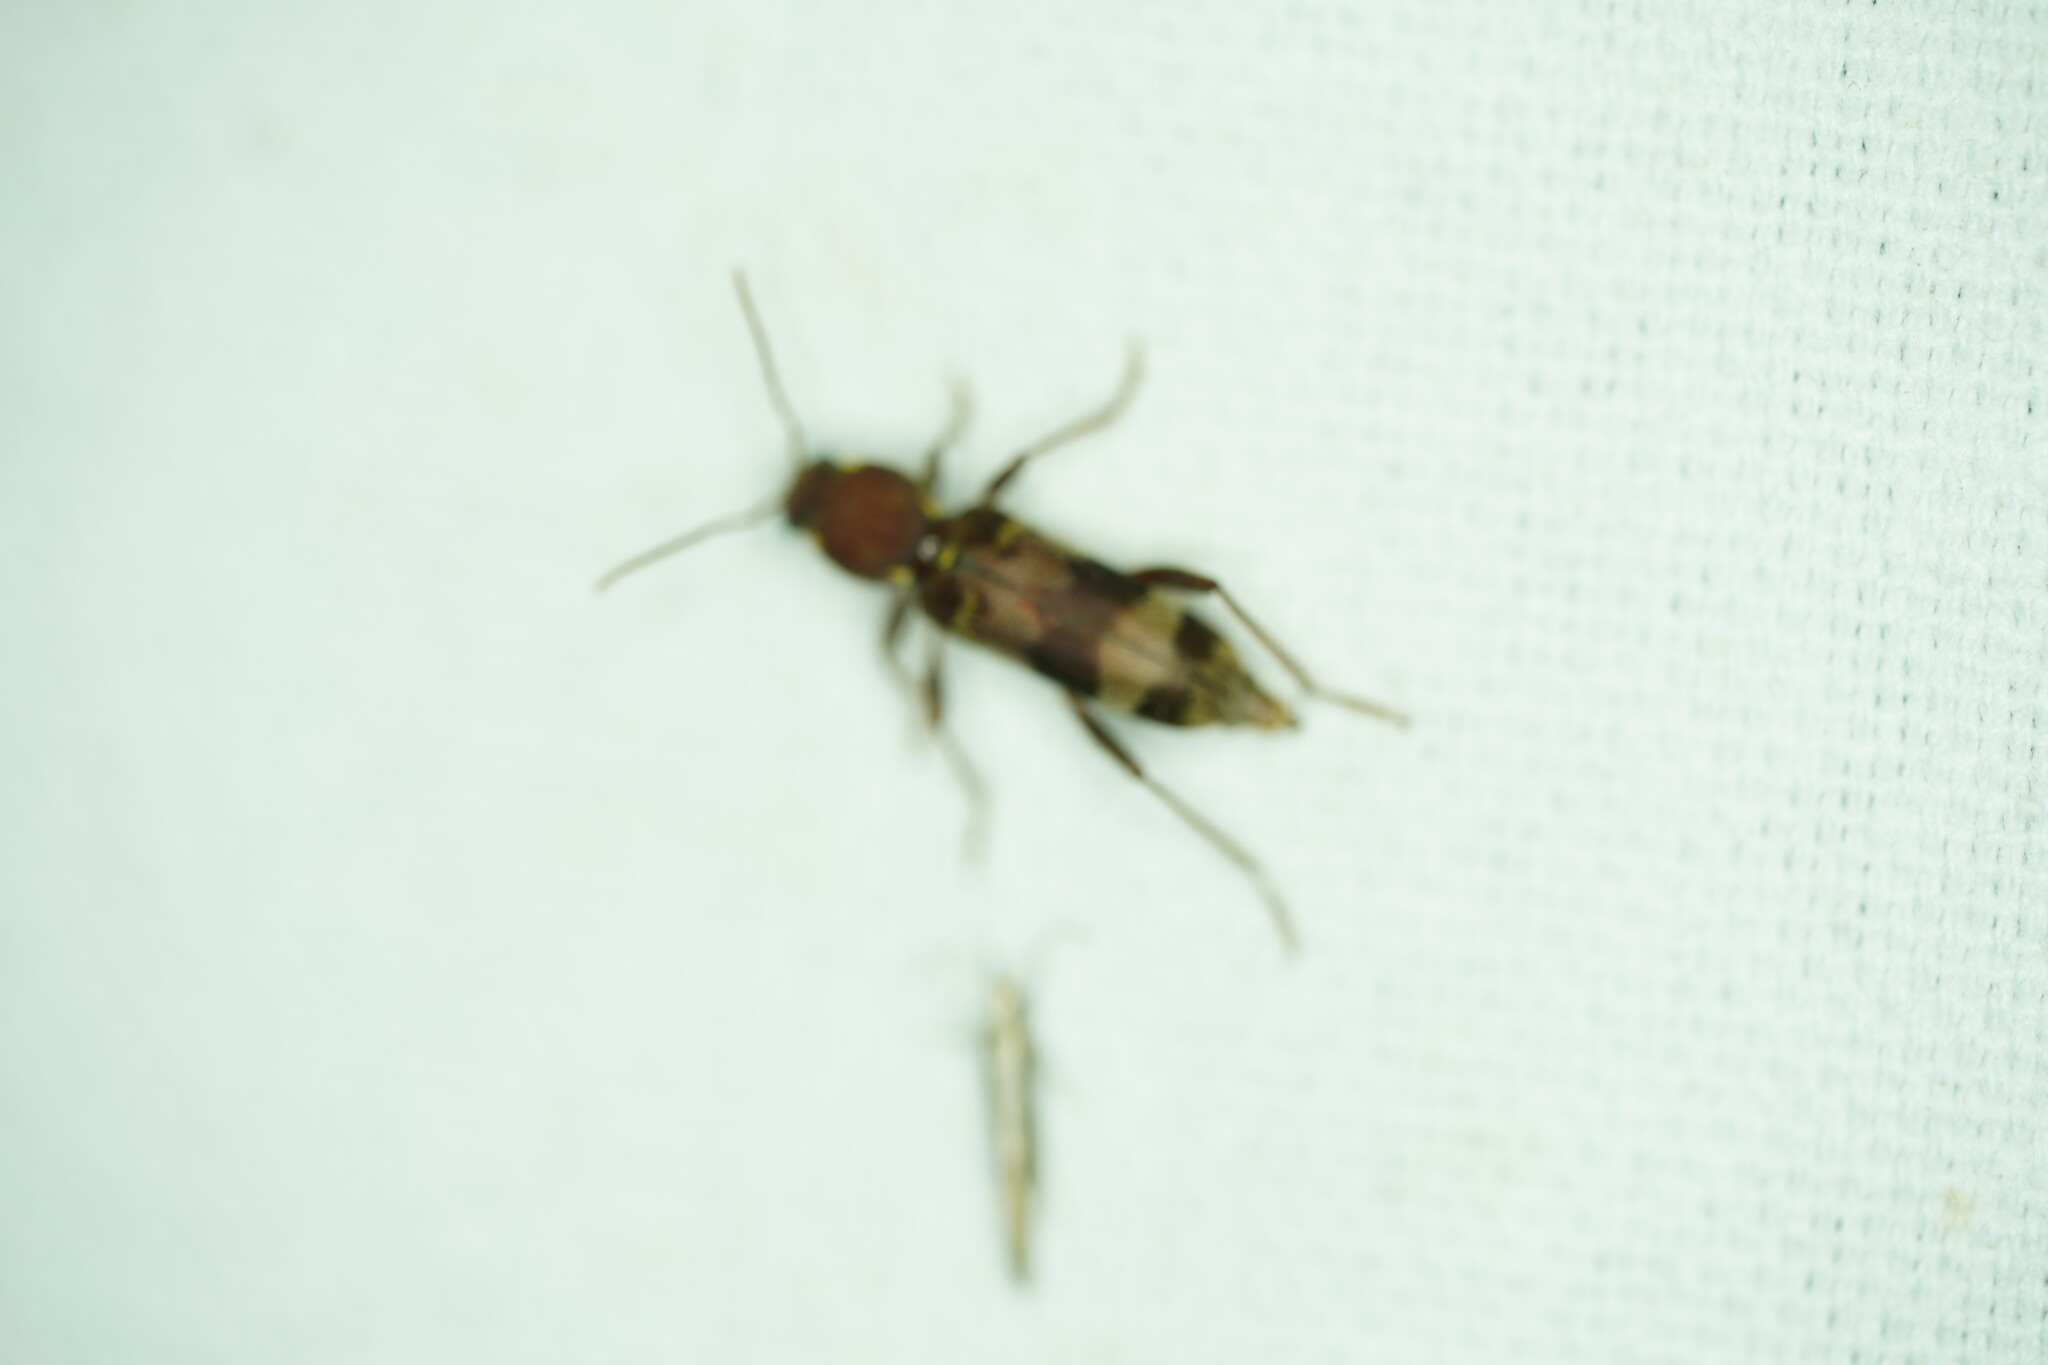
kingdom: Animalia
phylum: Arthropoda
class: Insecta
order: Coleoptera
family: Cerambycidae
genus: Xylotrechus
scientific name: Xylotrechus colonus
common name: Long-horned beetle
